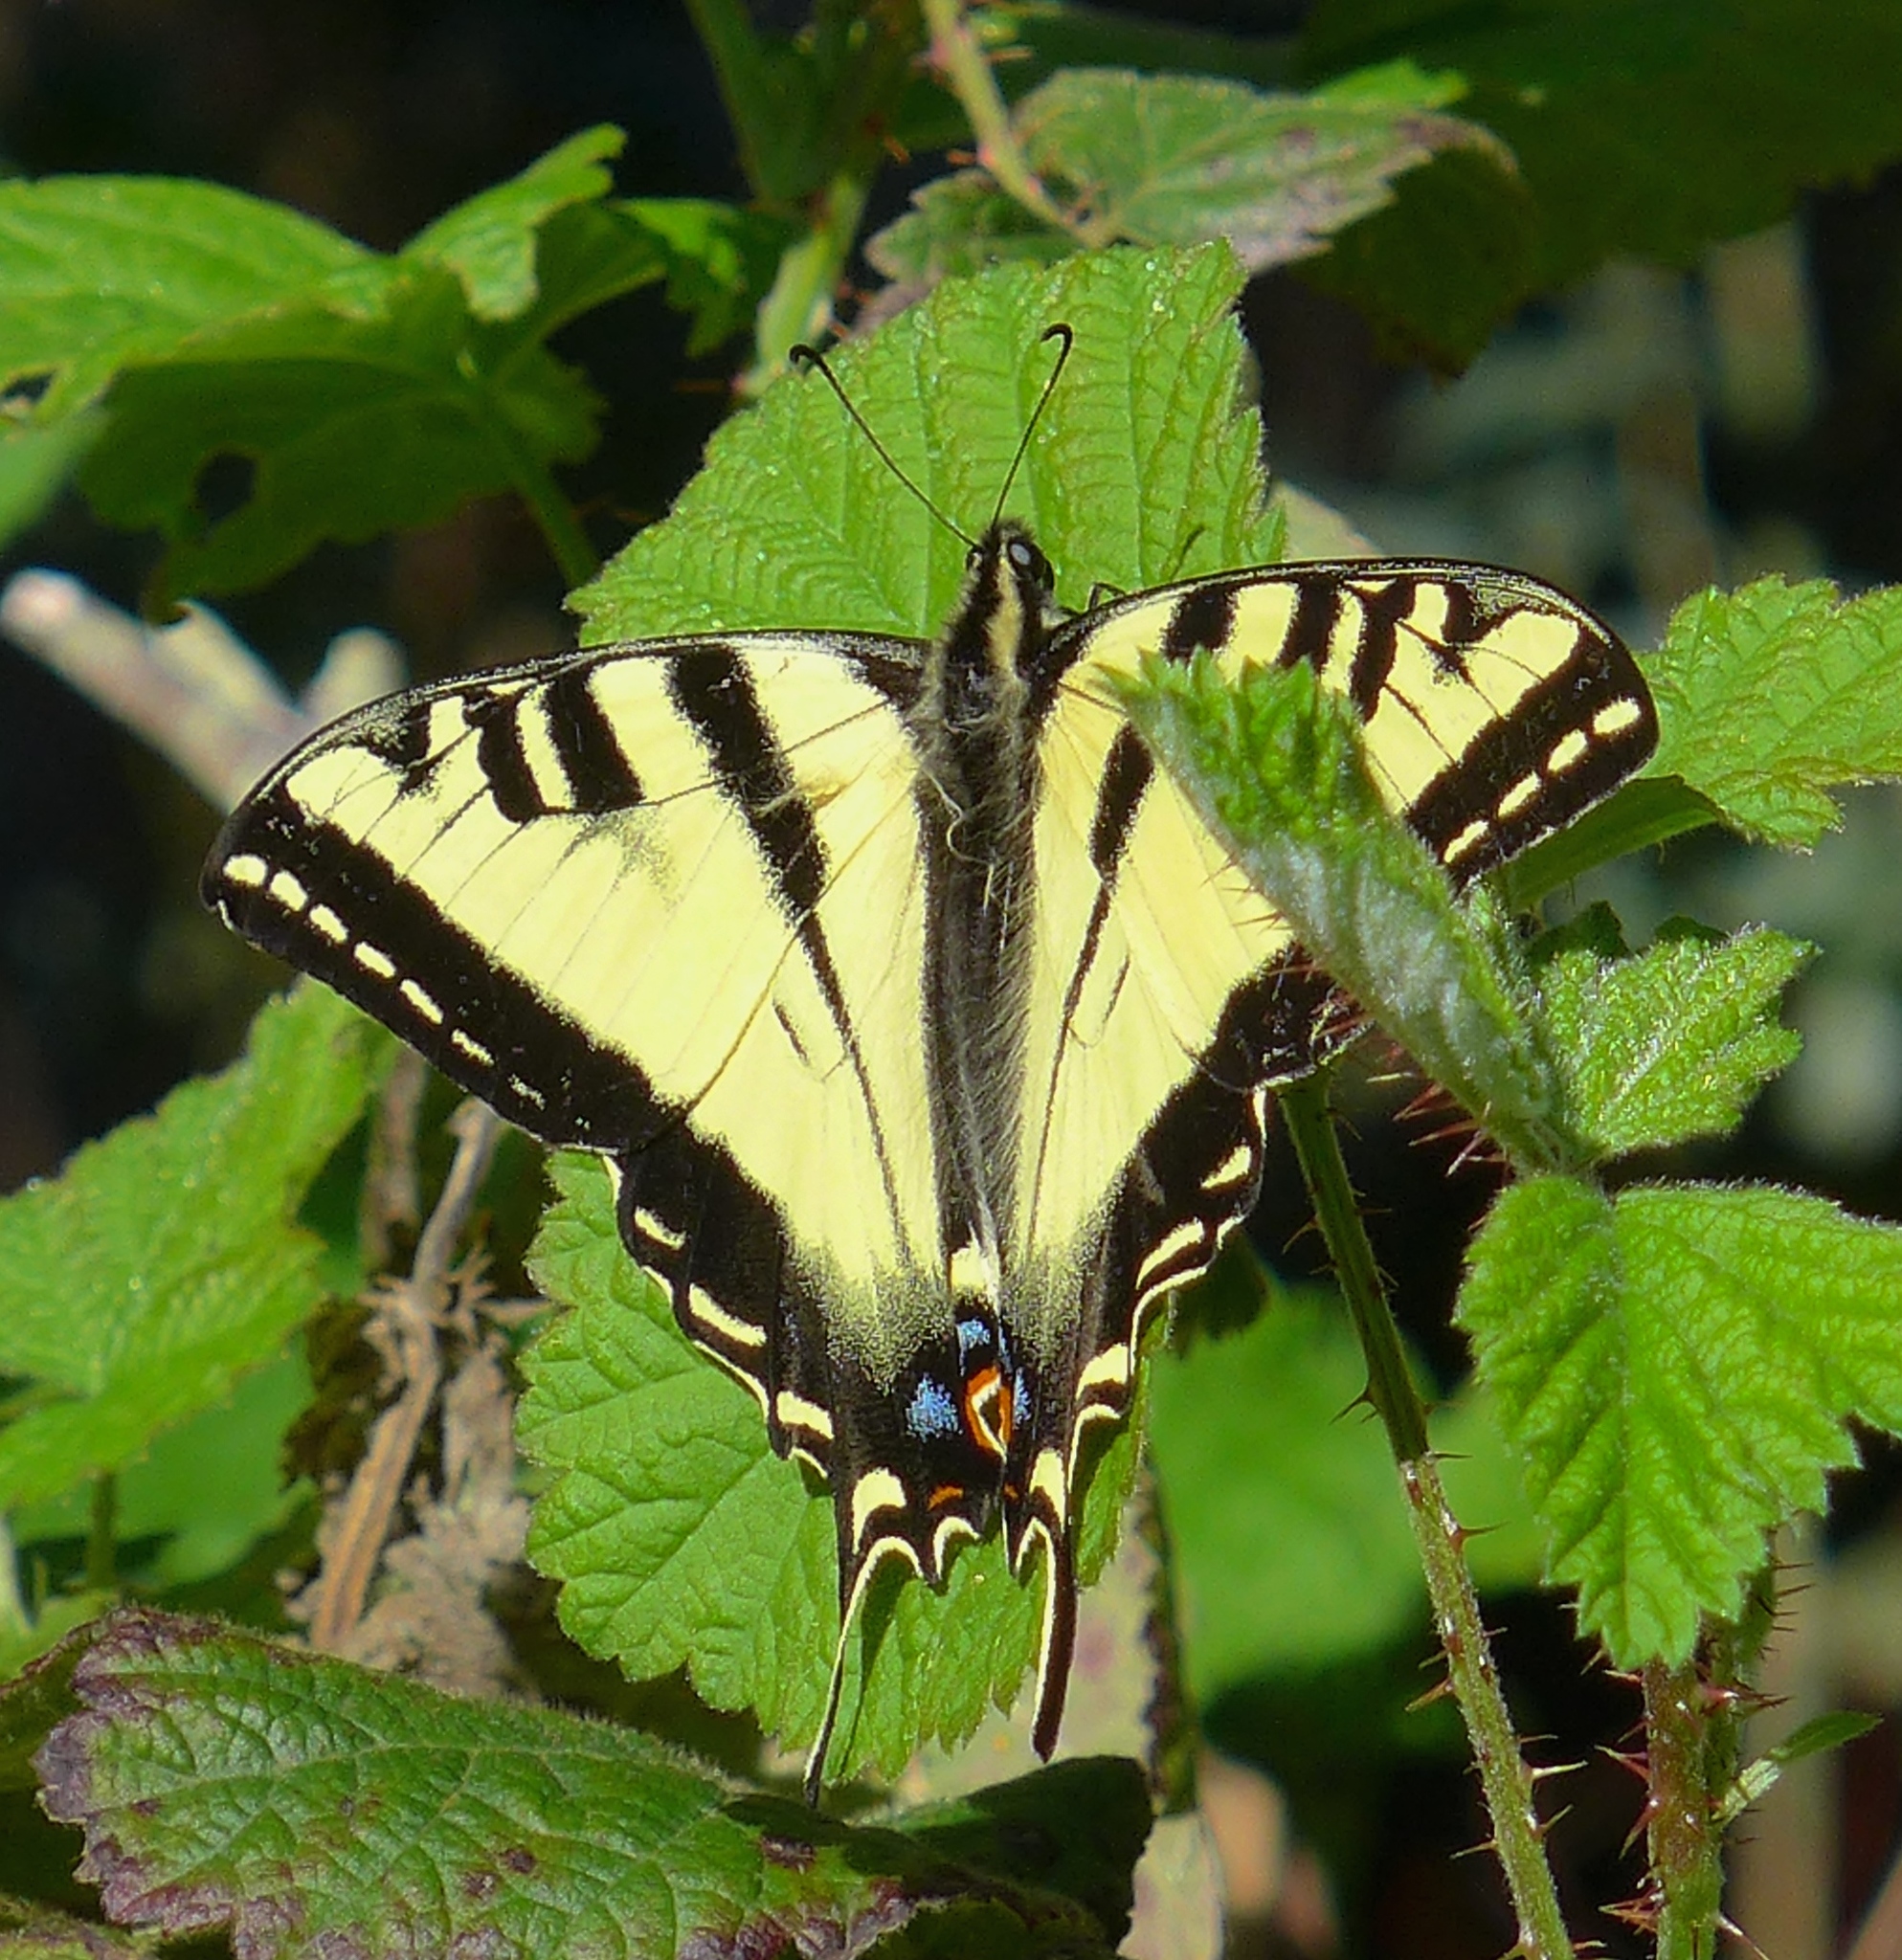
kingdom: Animalia
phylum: Arthropoda
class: Insecta
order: Lepidoptera
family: Papilionidae
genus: Papilio
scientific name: Papilio rutulus
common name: Western tiger swallowtail
